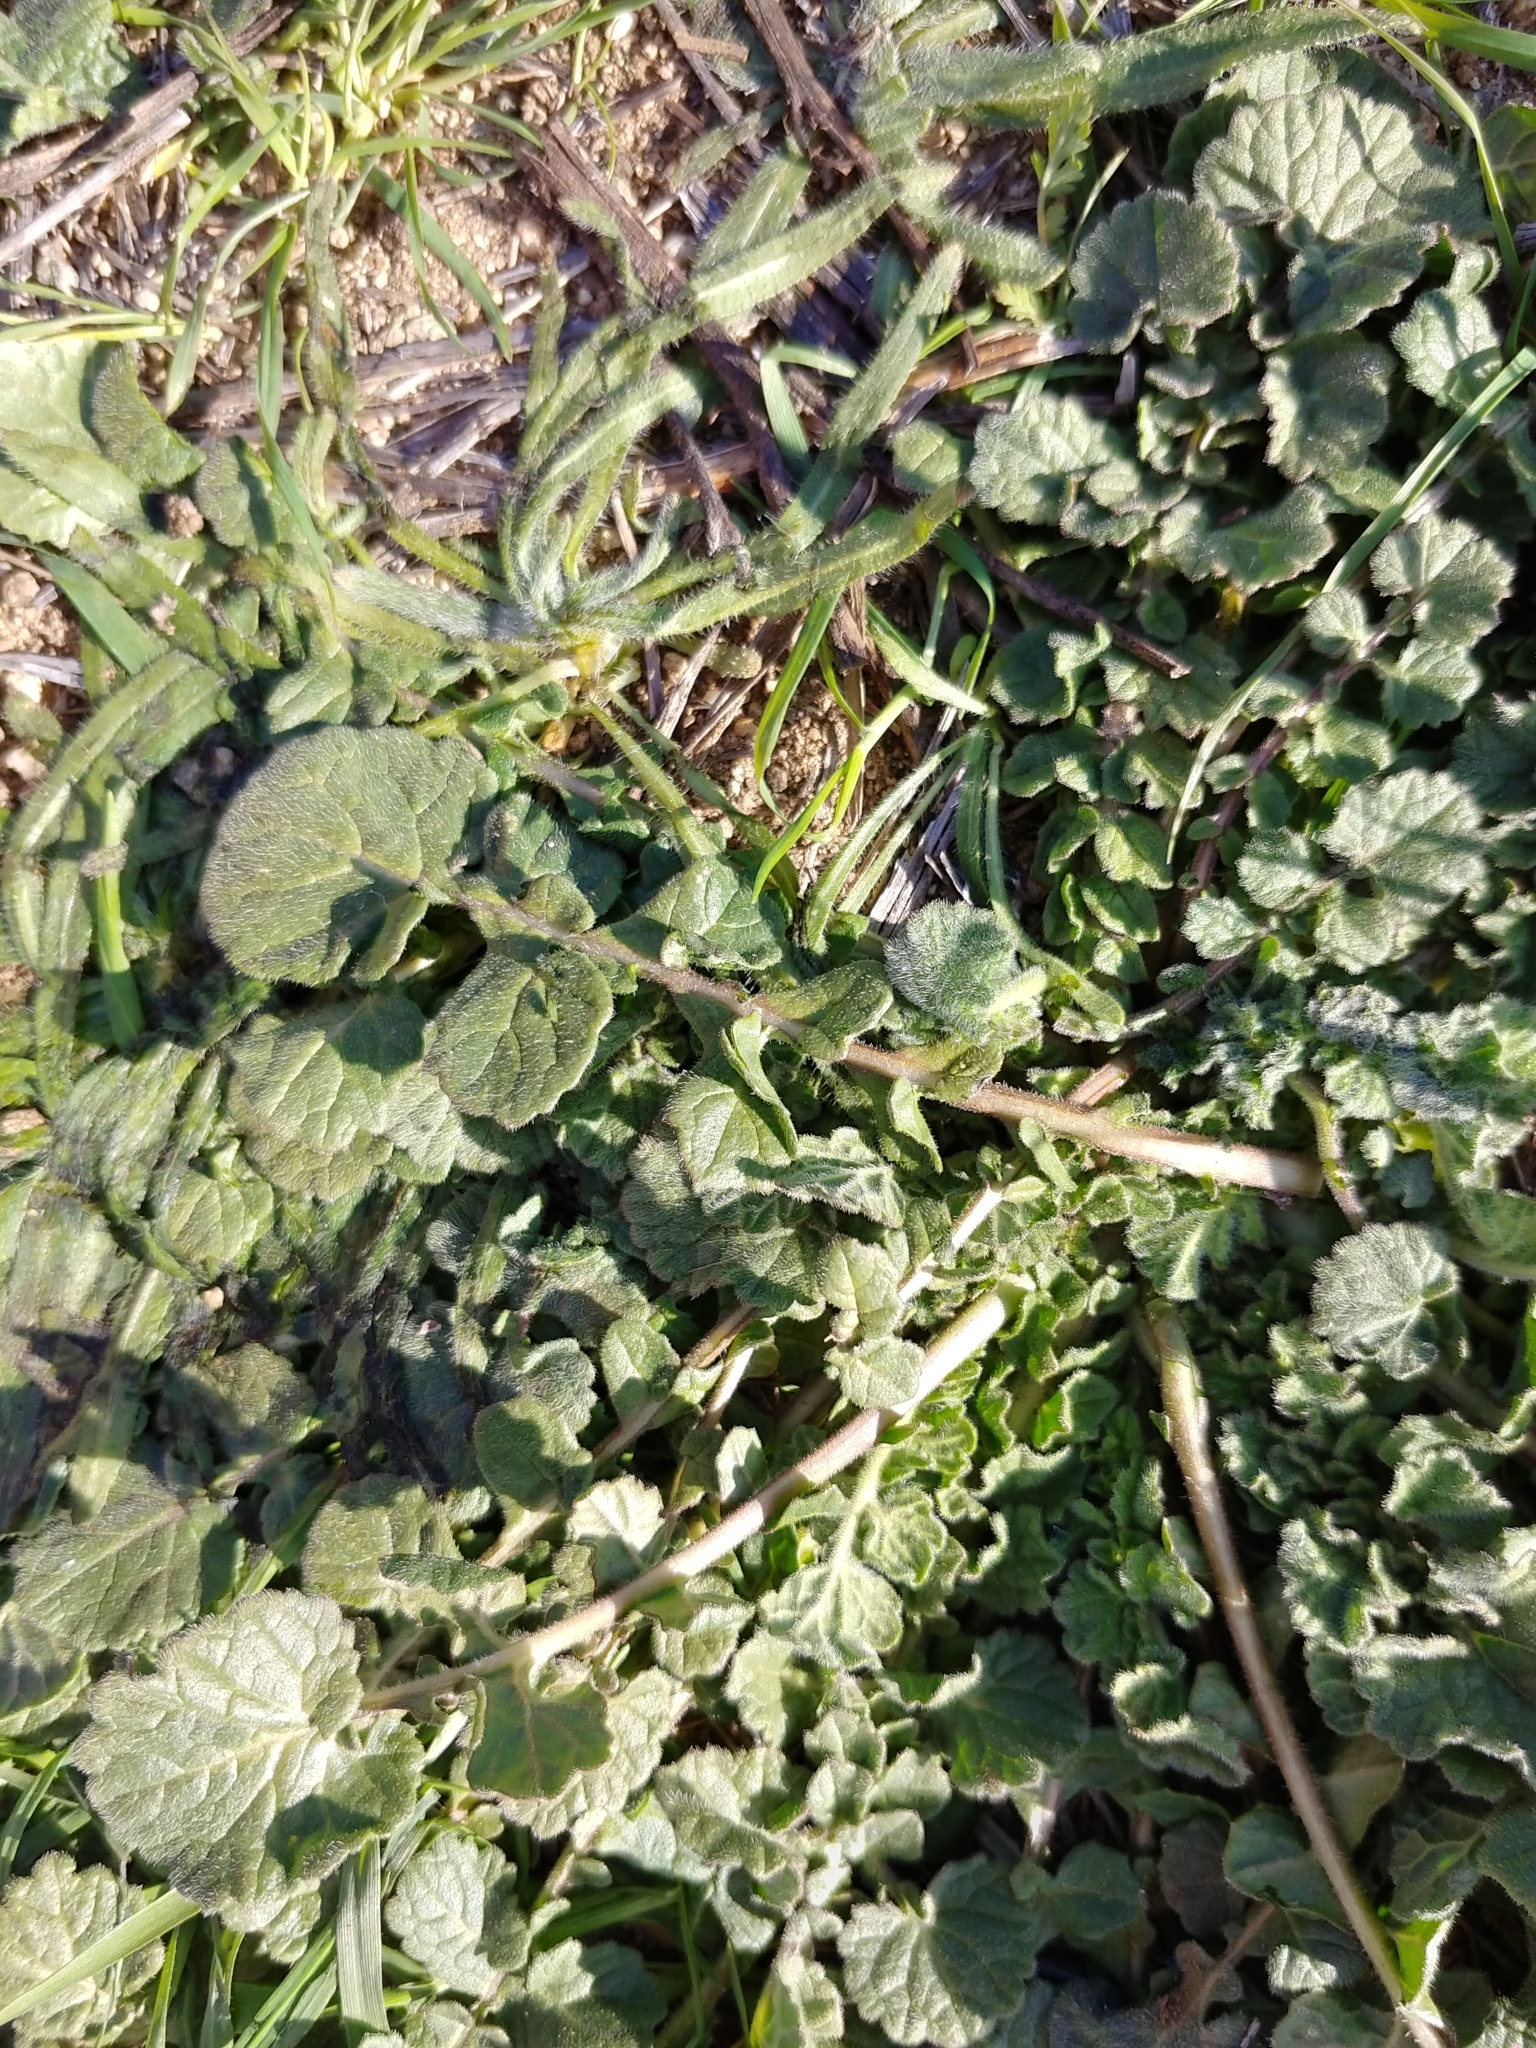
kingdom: Plantae
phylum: Tracheophyta
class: Magnoliopsida
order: Brassicales
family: Brassicaceae
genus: Hirschfeldia
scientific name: Hirschfeldia incana
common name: Hoary mustard
